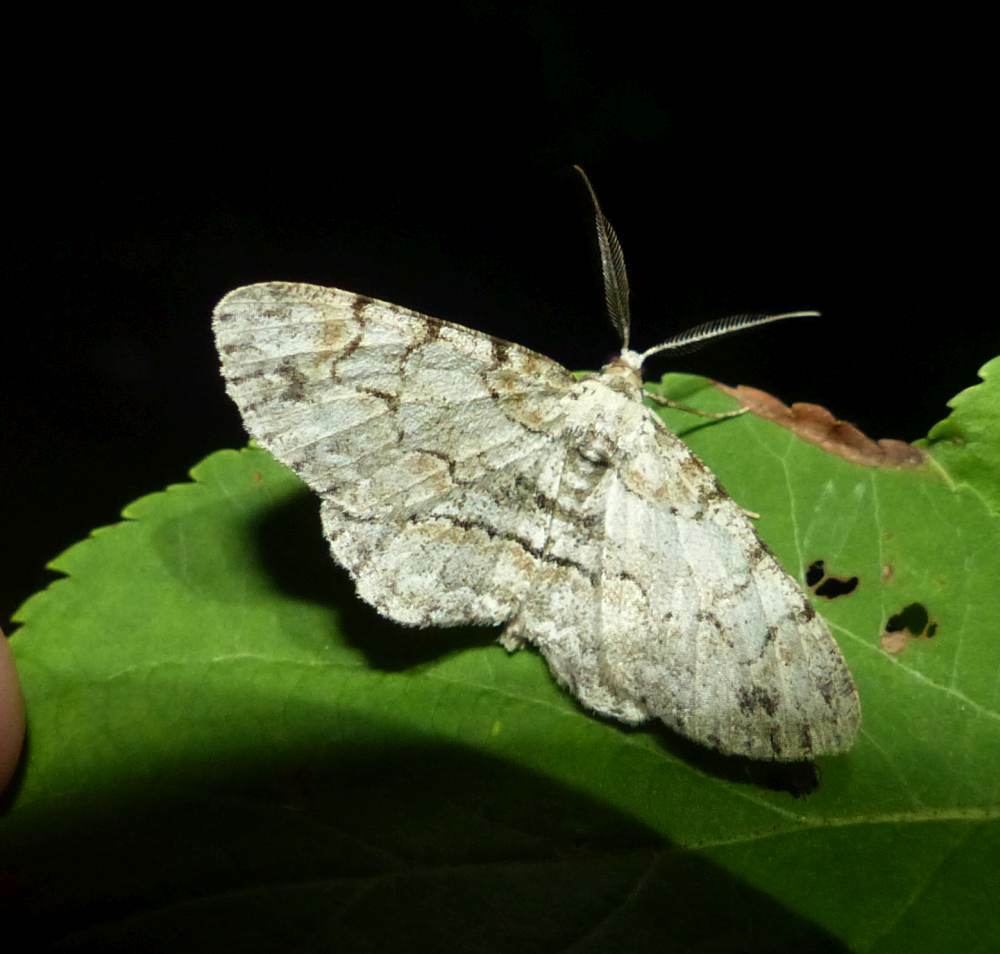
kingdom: Animalia
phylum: Arthropoda
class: Insecta
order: Lepidoptera
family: Geometridae
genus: Iridopsis
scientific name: Iridopsis ephyraria
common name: Pale-winged gray
